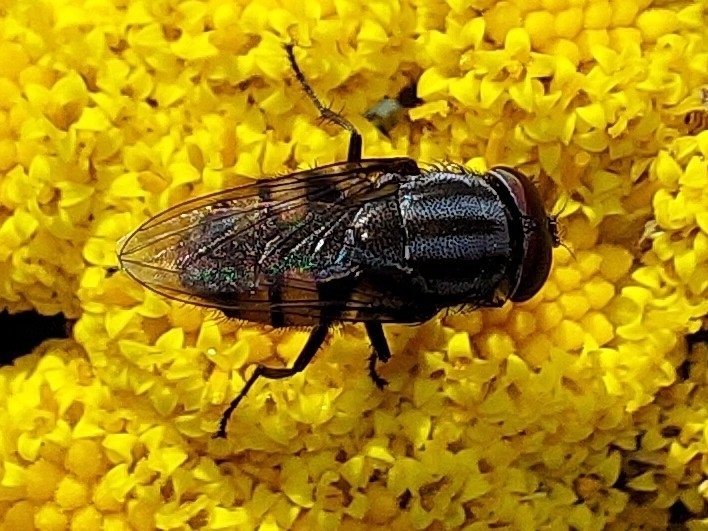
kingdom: Animalia
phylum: Arthropoda
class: Insecta
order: Diptera
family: Calliphoridae
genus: Stomorhina
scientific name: Stomorhina lunata
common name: Locust blowfly
